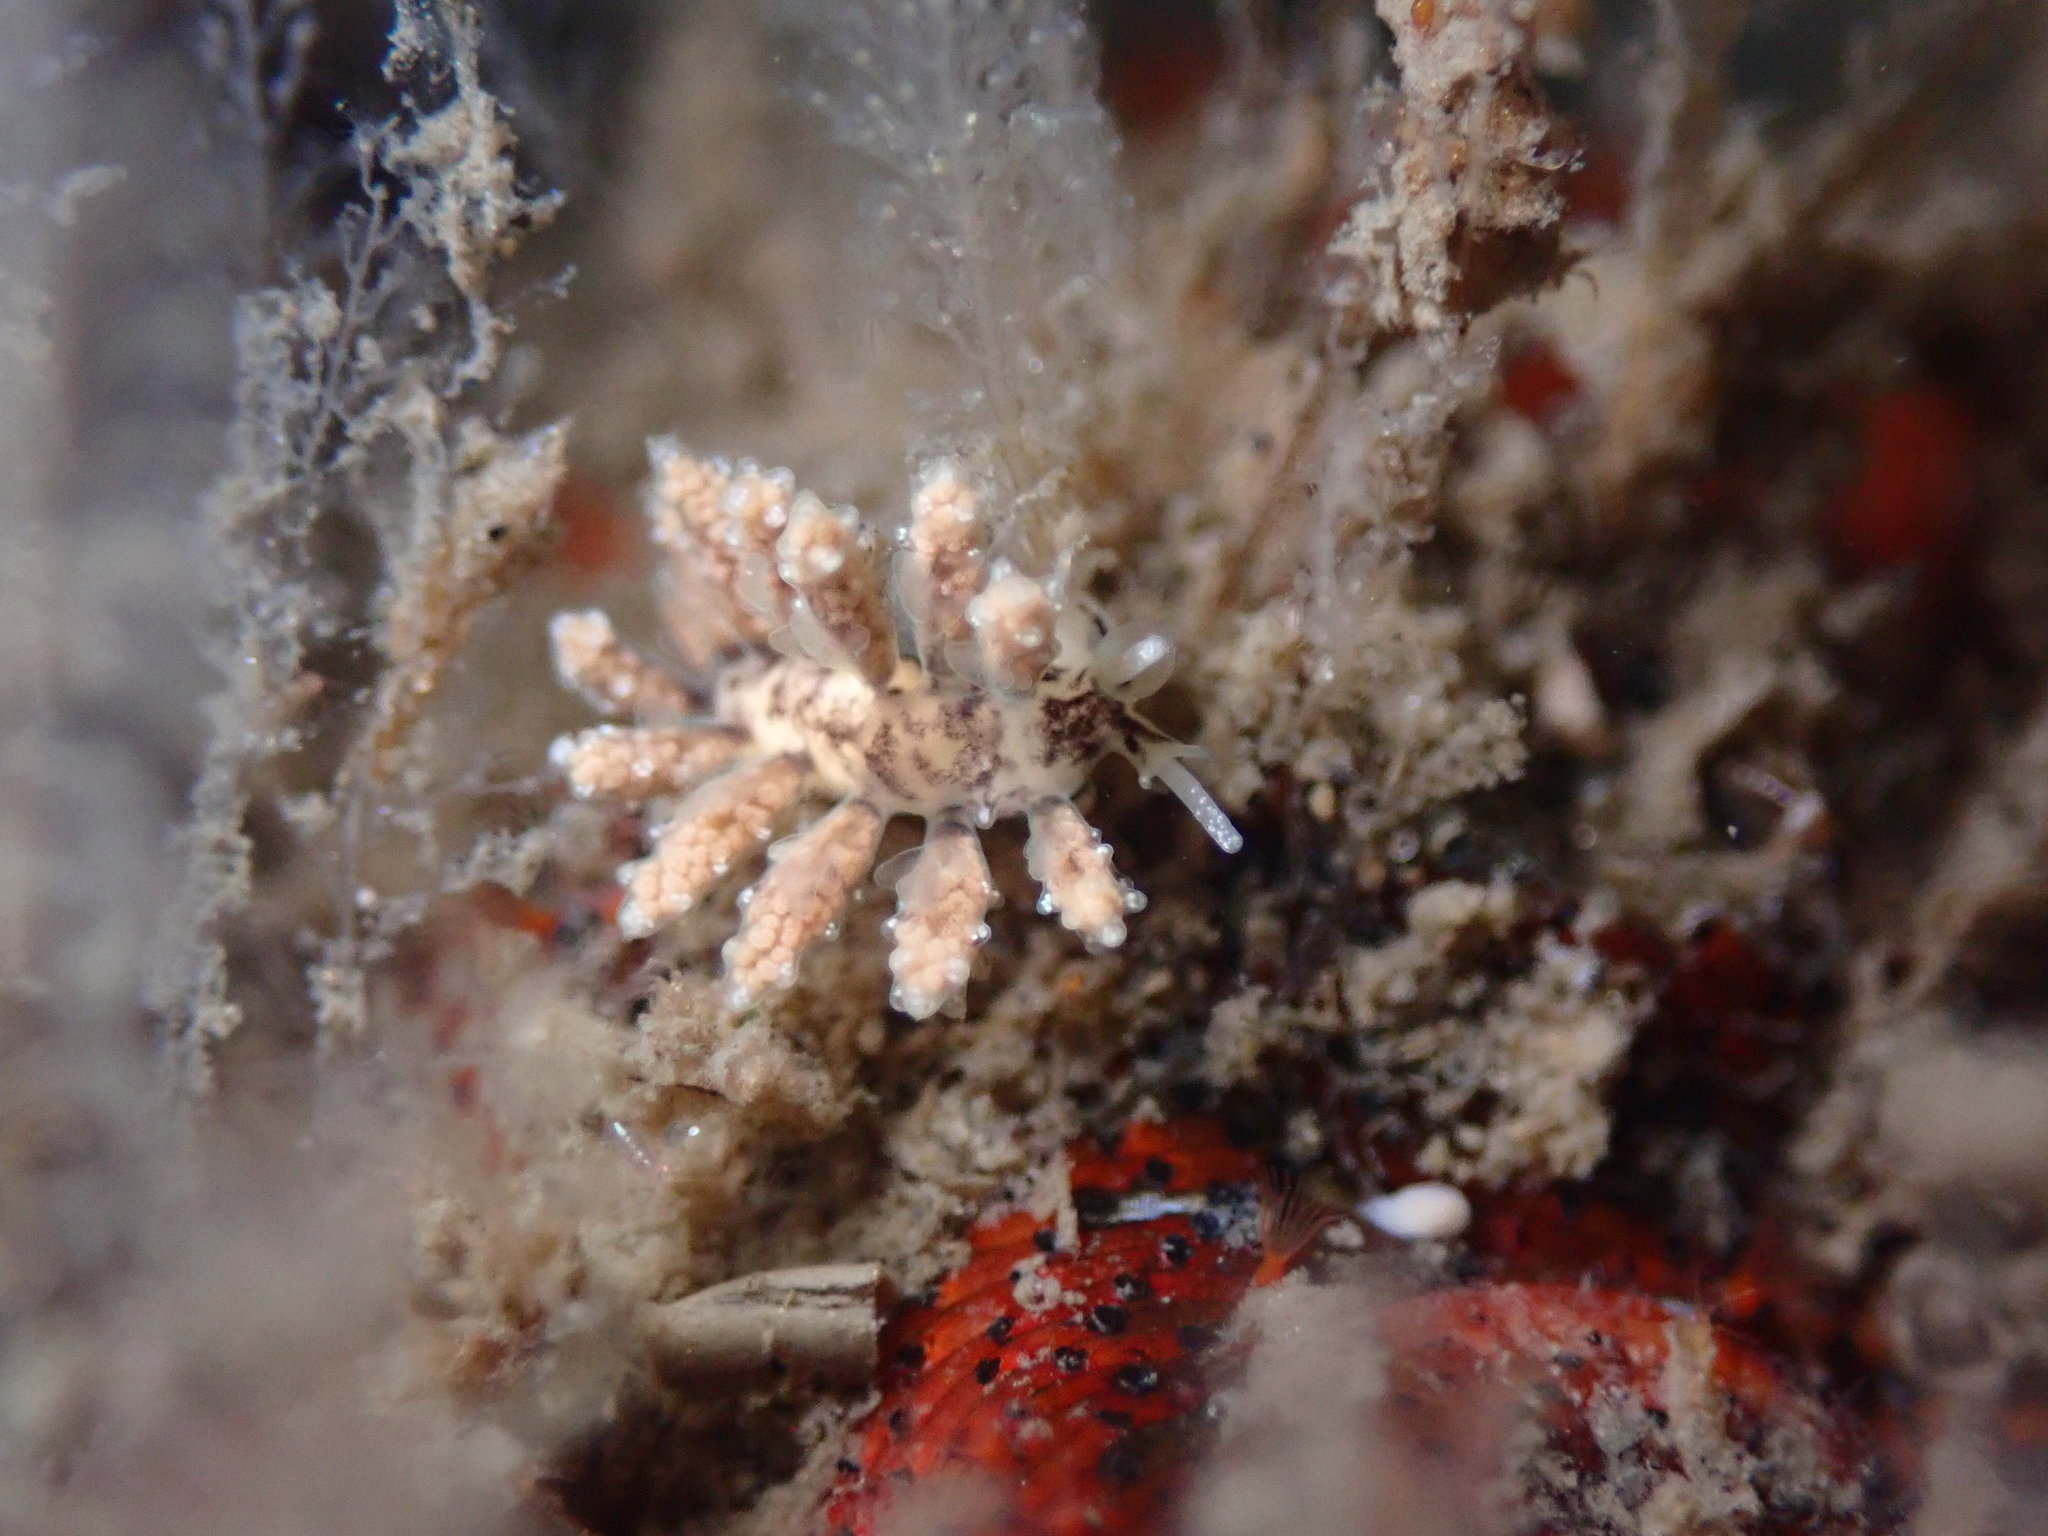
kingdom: Animalia
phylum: Mollusca
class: Gastropoda
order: Nudibranchia
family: Dotidae
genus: Doto
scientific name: Doto kya
